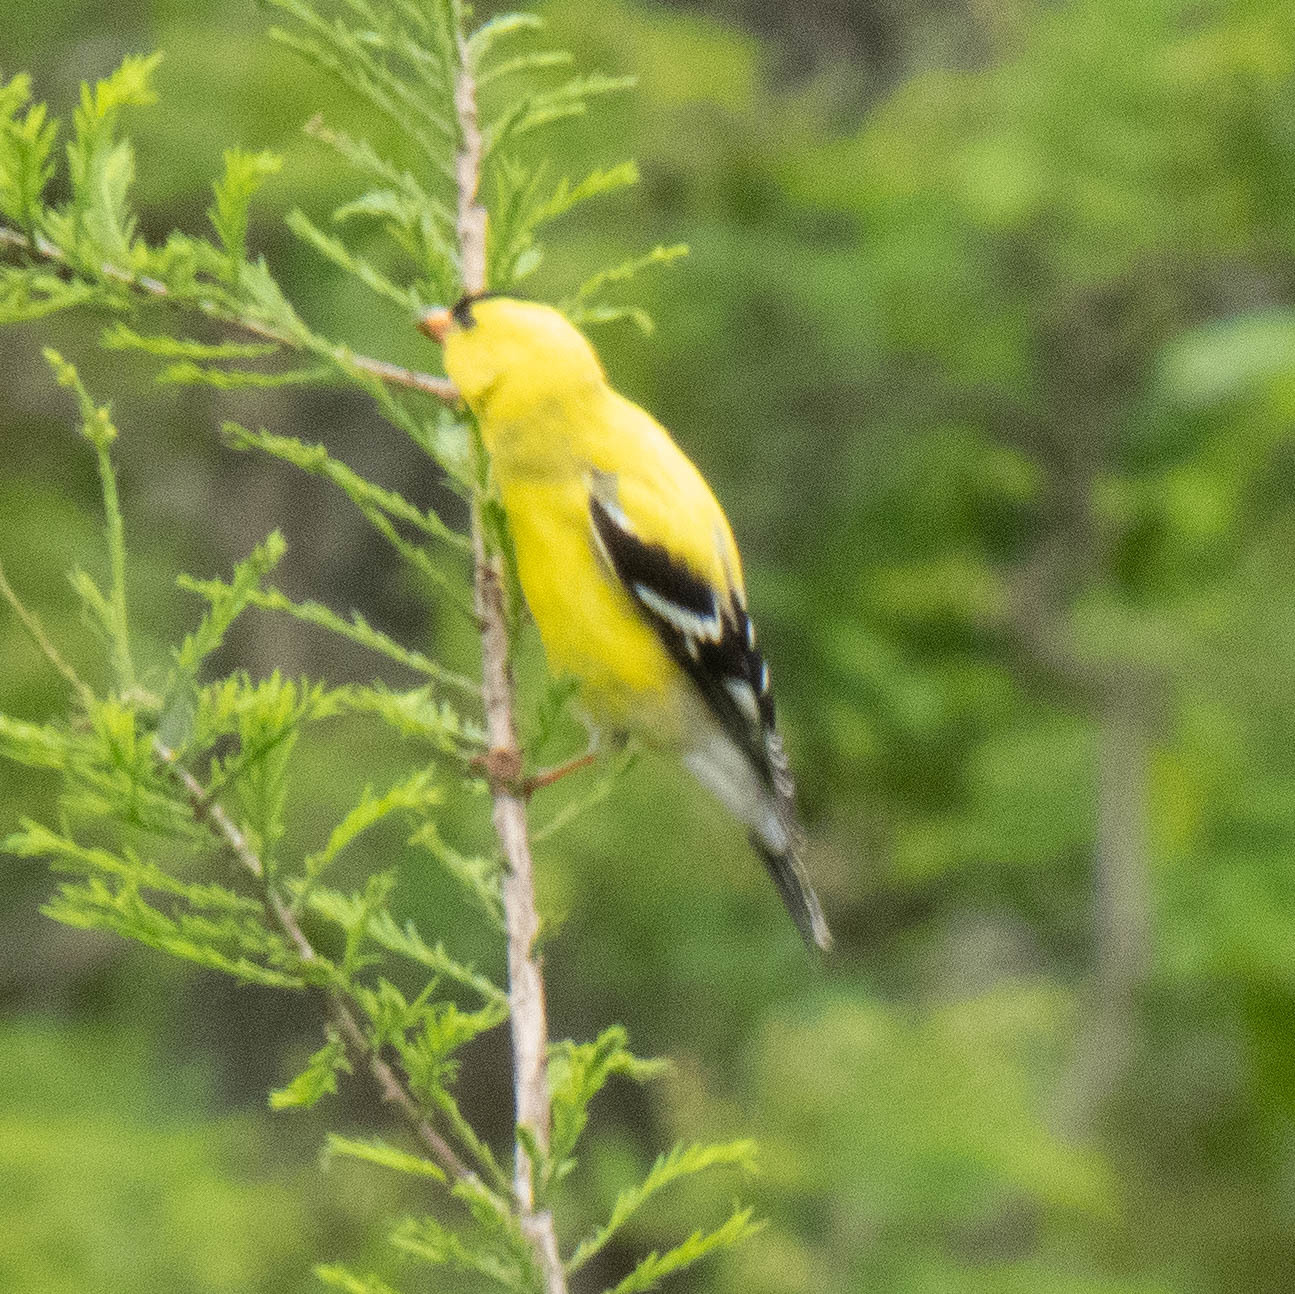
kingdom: Animalia
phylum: Chordata
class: Aves
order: Passeriformes
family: Fringillidae
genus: Spinus
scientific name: Spinus tristis
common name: American goldfinch
